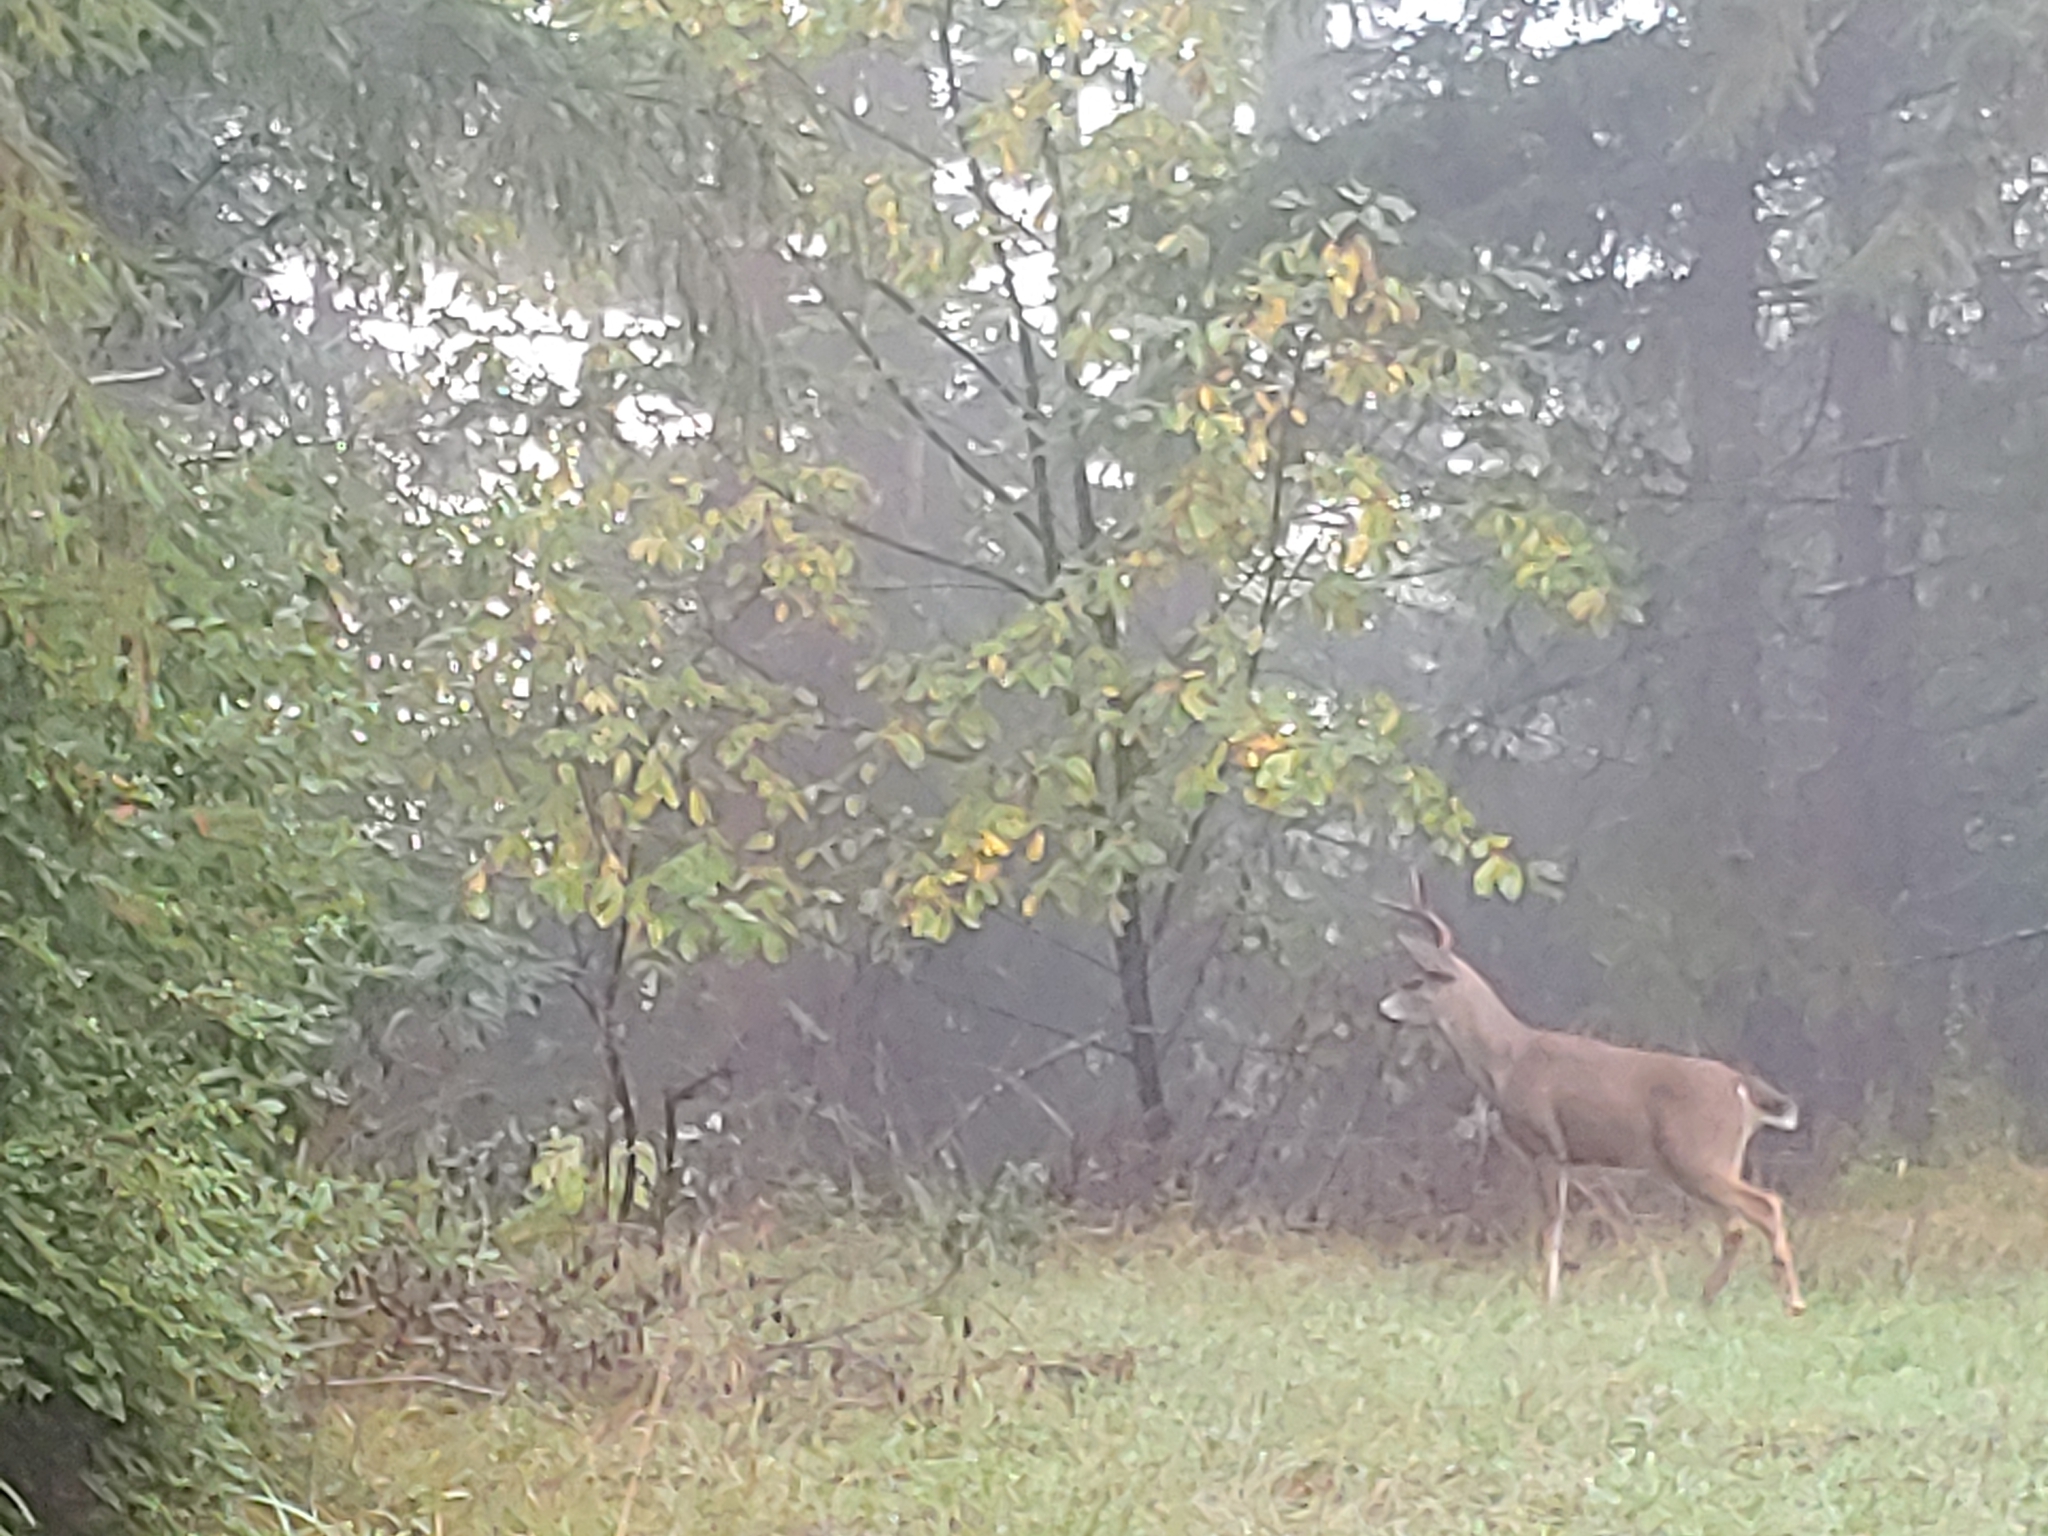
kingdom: Animalia
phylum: Chordata
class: Mammalia
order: Artiodactyla
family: Cervidae
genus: Odocoileus
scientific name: Odocoileus hemionus
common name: Mule deer
